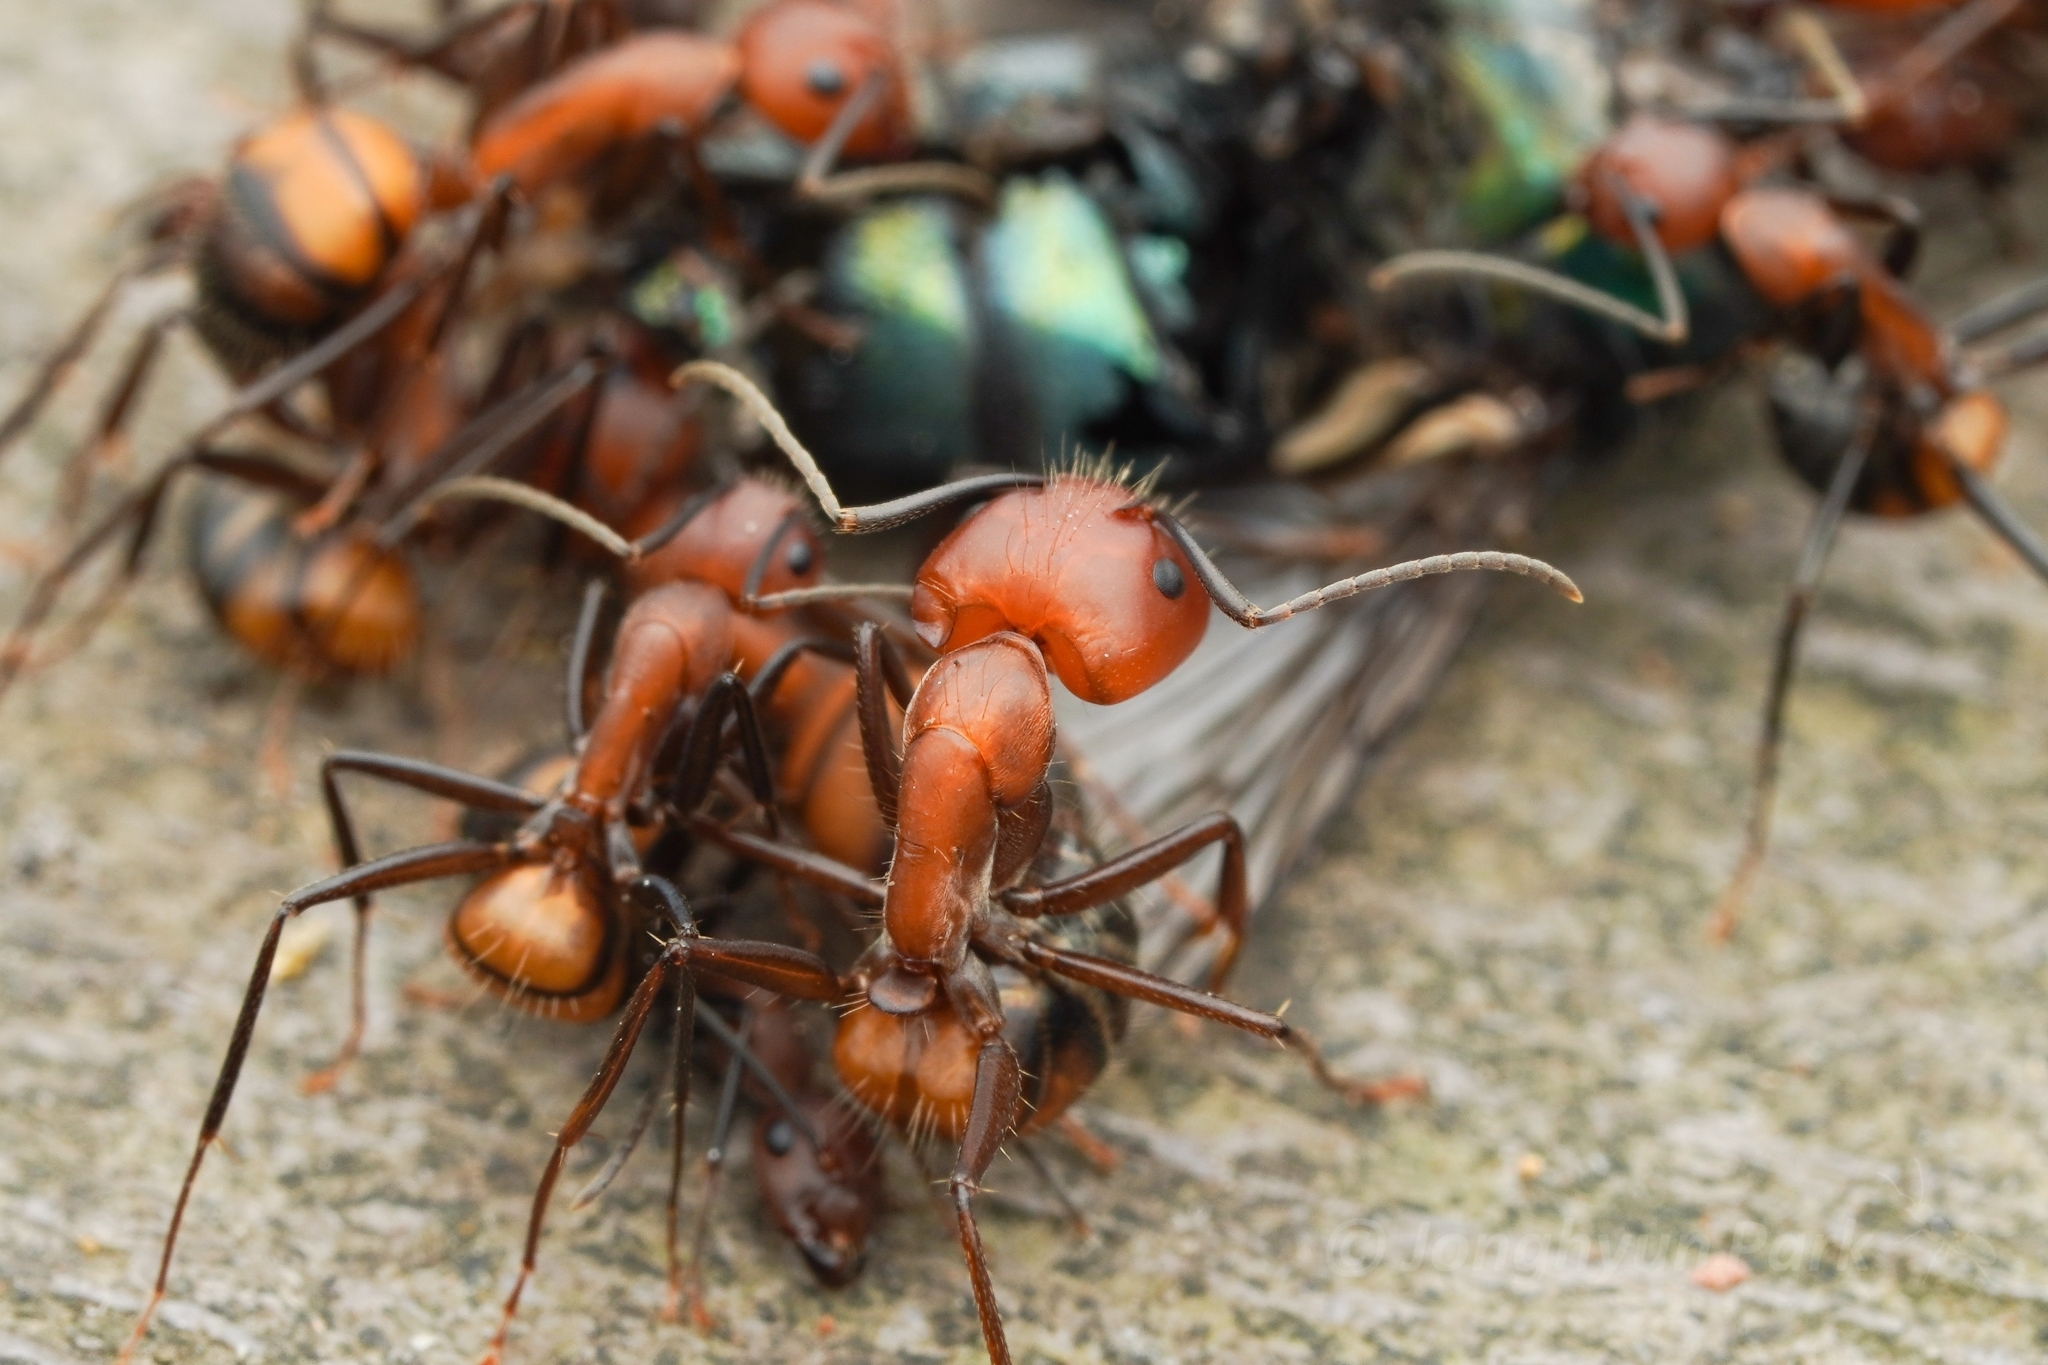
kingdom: Animalia
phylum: Arthropoda
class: Insecta
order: Hymenoptera
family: Formicidae
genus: Camponotus
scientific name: Camponotus nicobarensis
